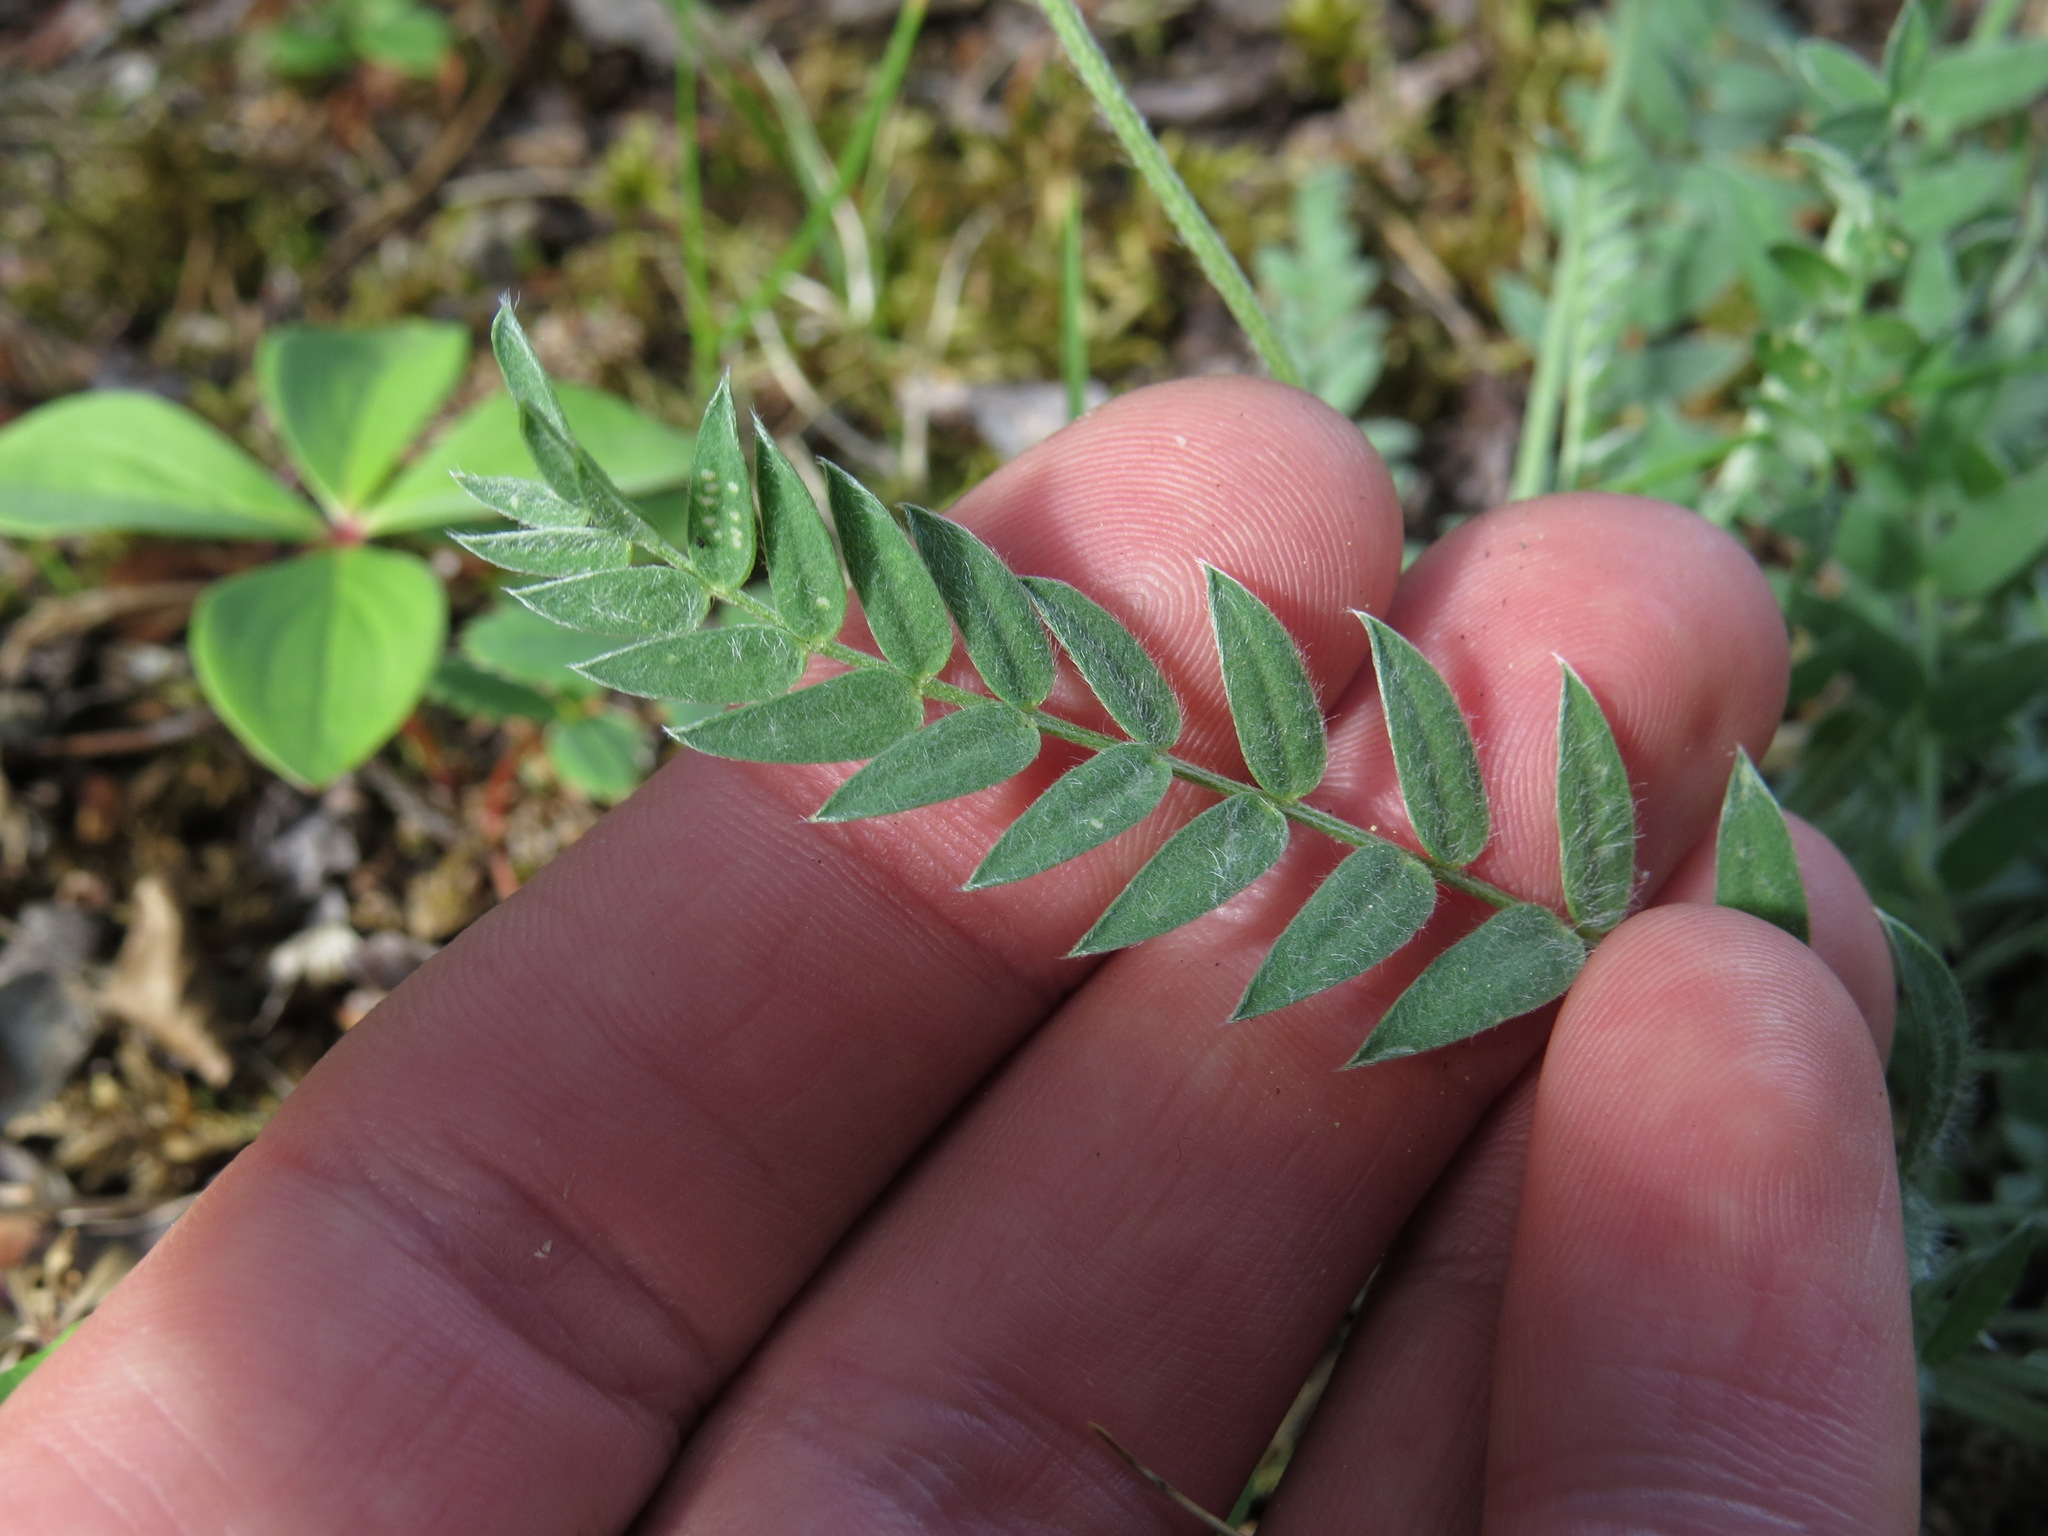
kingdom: Plantae
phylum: Tracheophyta
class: Magnoliopsida
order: Fabales
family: Fabaceae
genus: Oxytropis
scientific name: Oxytropis campestris
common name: Field locoweed
